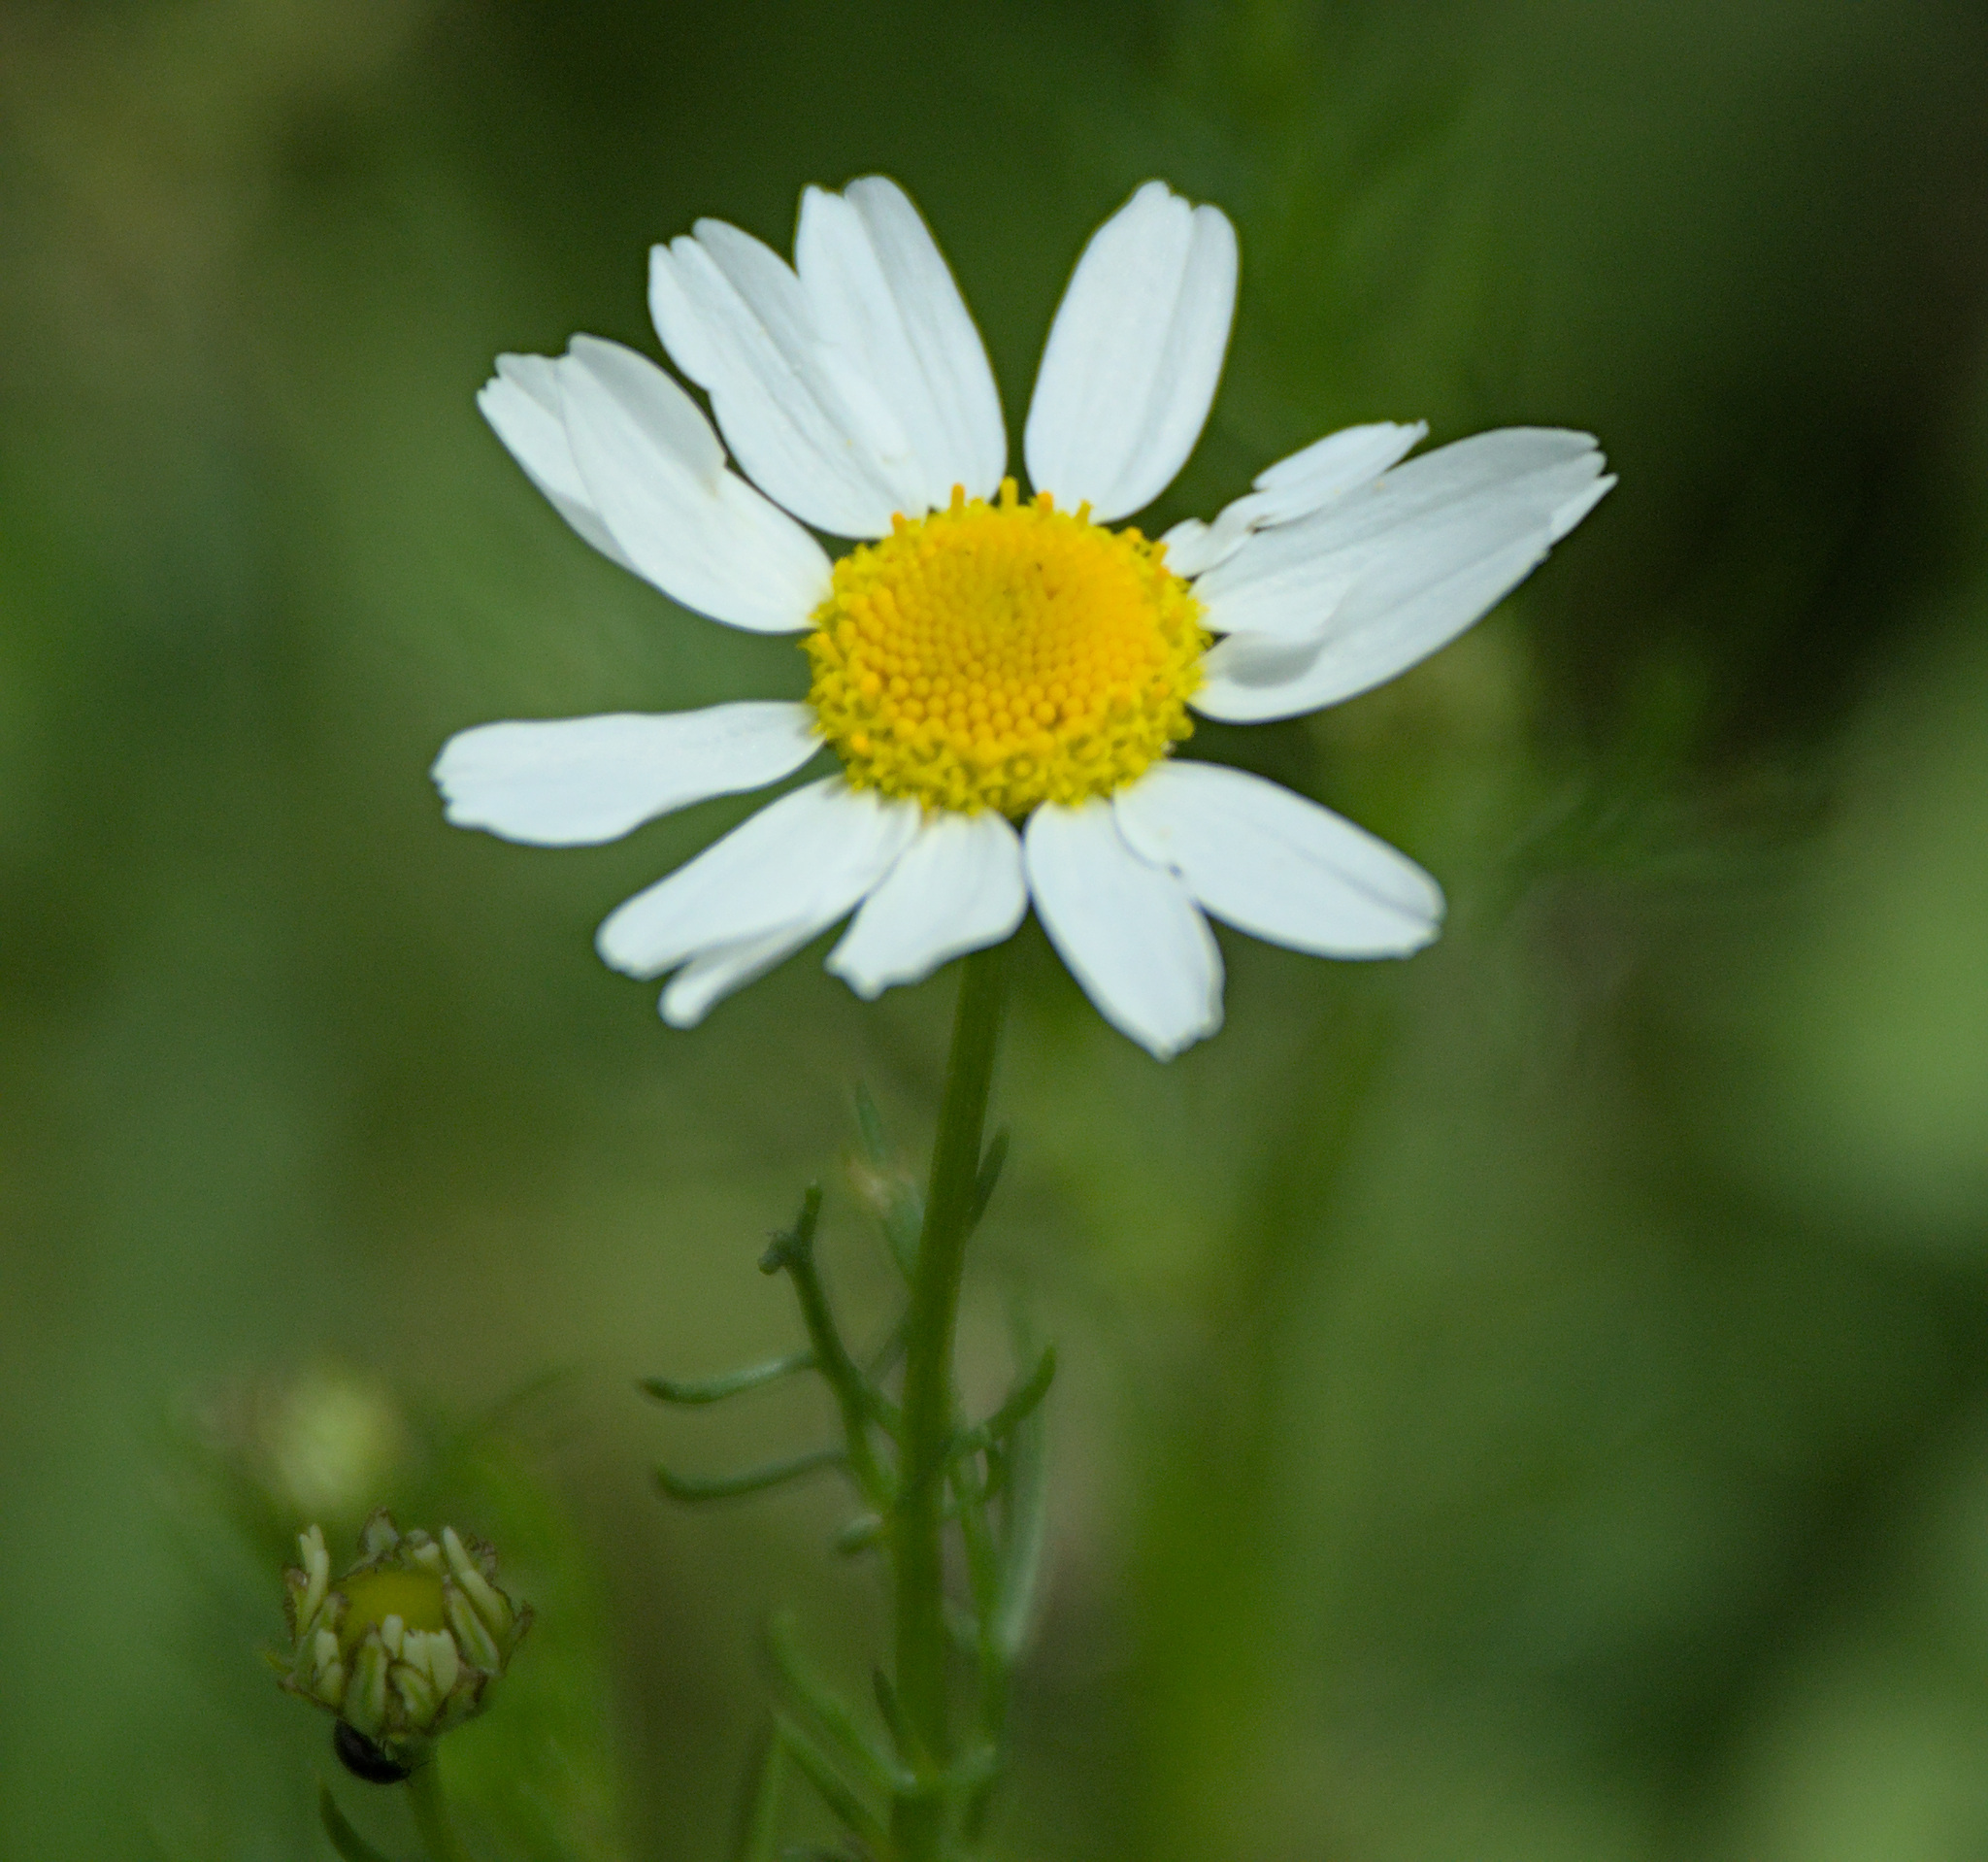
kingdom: Plantae
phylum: Tracheophyta
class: Magnoliopsida
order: Asterales
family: Asteraceae
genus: Tripleurospermum
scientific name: Tripleurospermum inodorum
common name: Scentless mayweed
